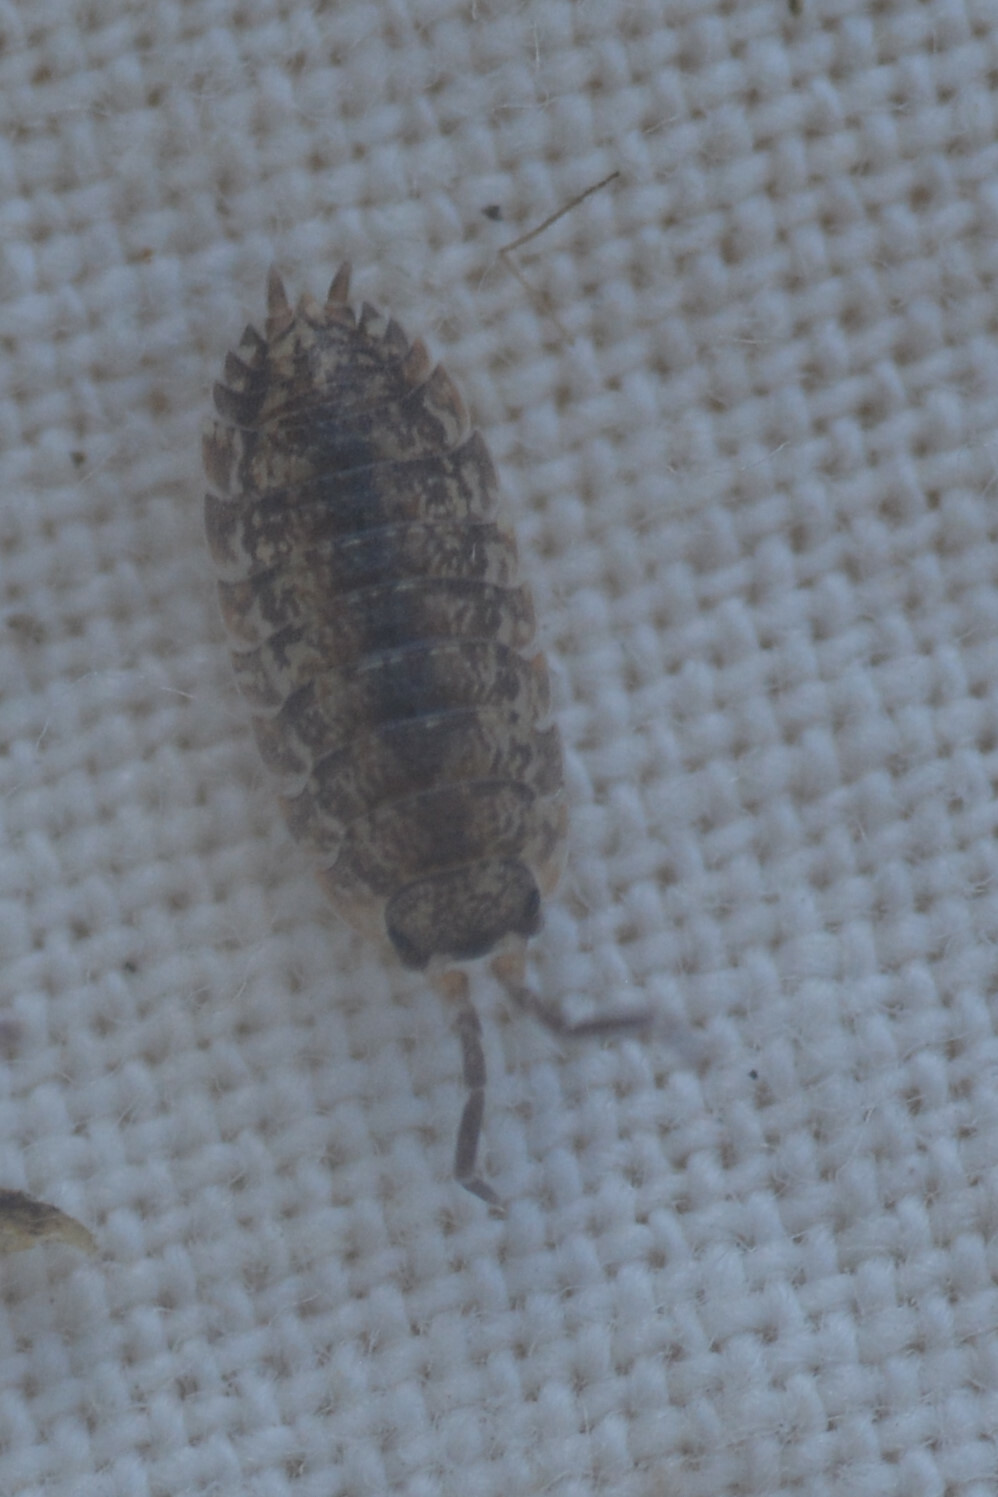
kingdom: Animalia
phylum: Arthropoda
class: Malacostraca
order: Isopoda
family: Porcellionidae
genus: Porcellio
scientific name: Porcellio scaber
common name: Common rough woodlouse
